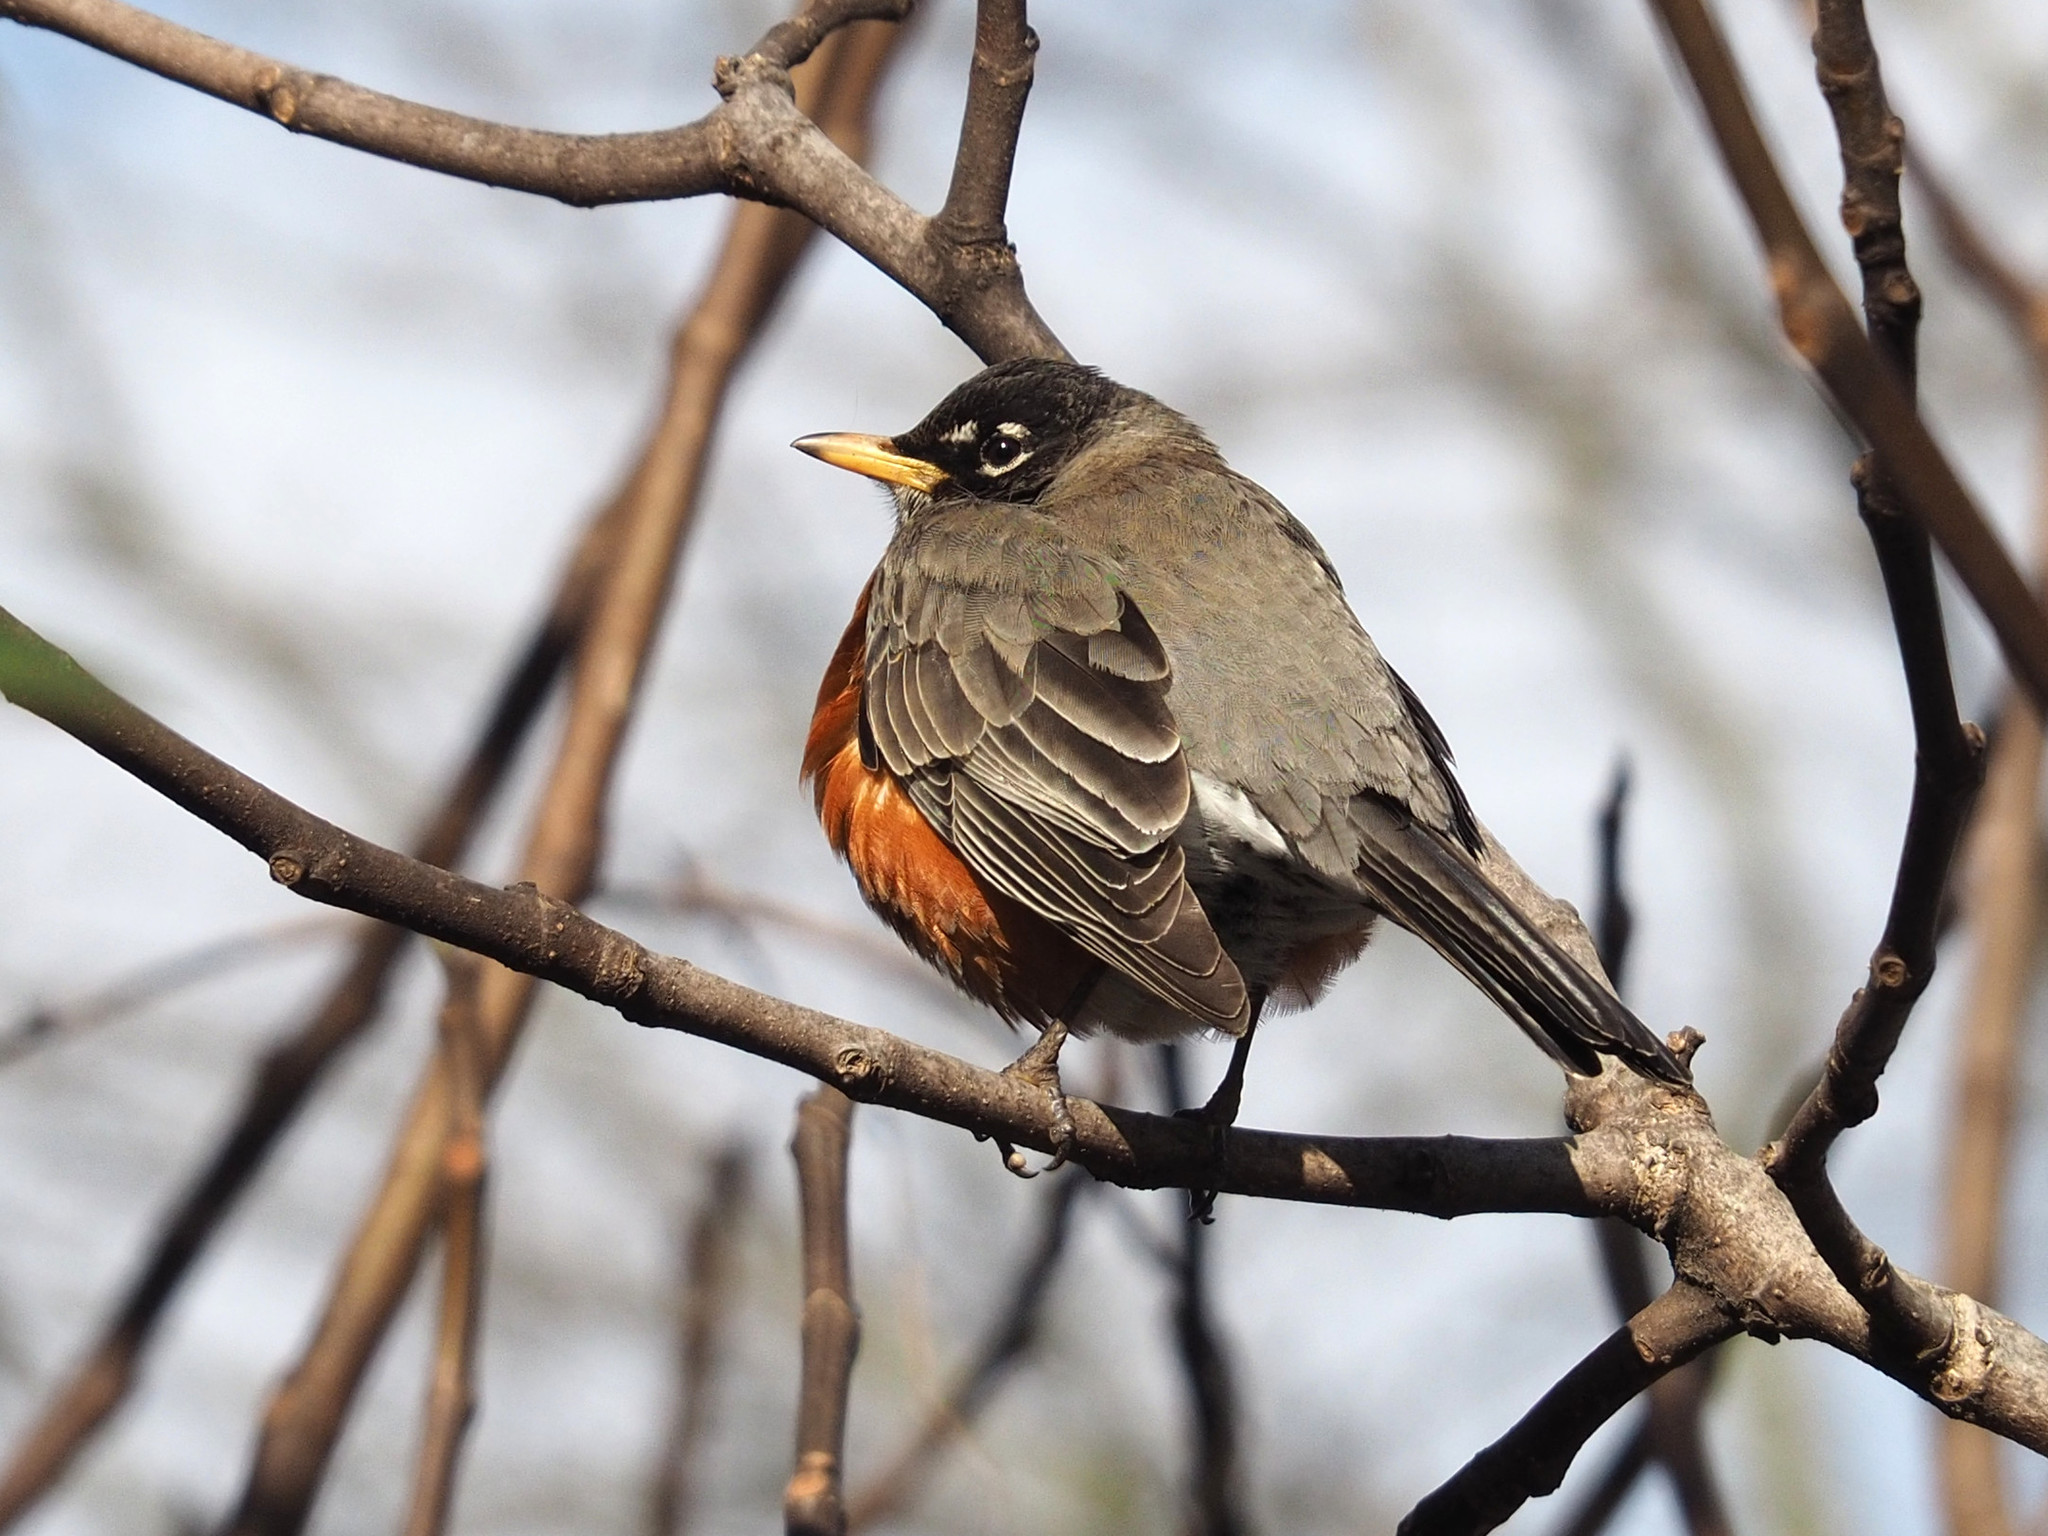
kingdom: Animalia
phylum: Chordata
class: Aves
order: Passeriformes
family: Turdidae
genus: Turdus
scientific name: Turdus migratorius
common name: American robin
